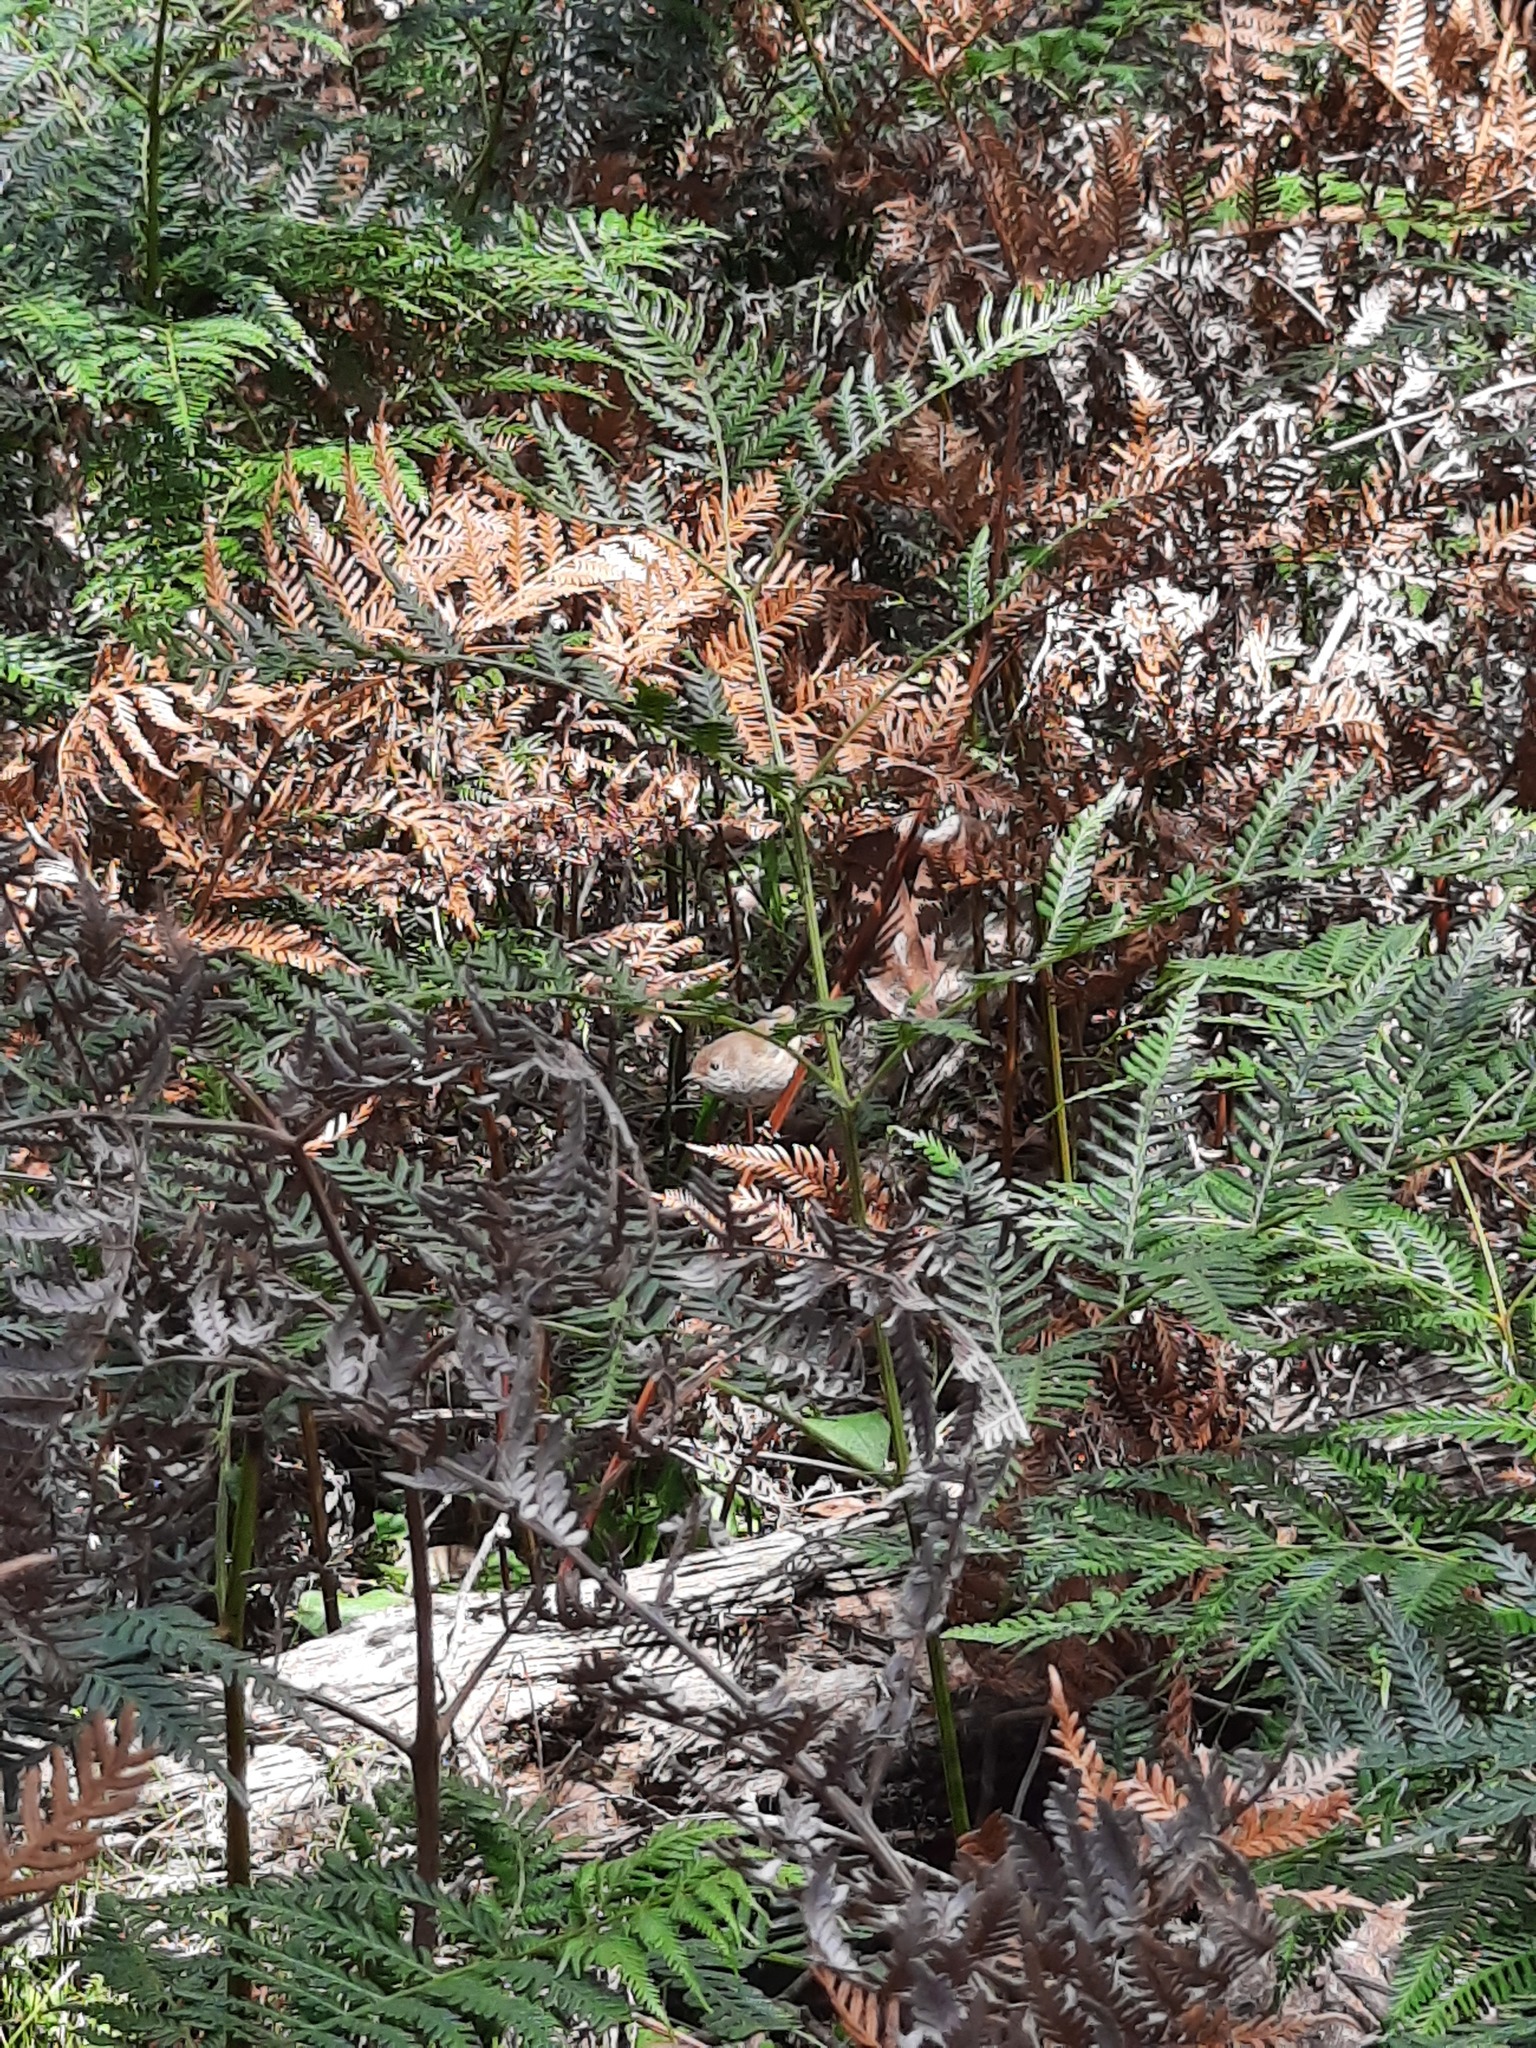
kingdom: Plantae
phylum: Tracheophyta
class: Polypodiopsida
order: Polypodiales
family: Dennstaedtiaceae
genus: Pteridium
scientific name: Pteridium esculentum
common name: Bracken fern
